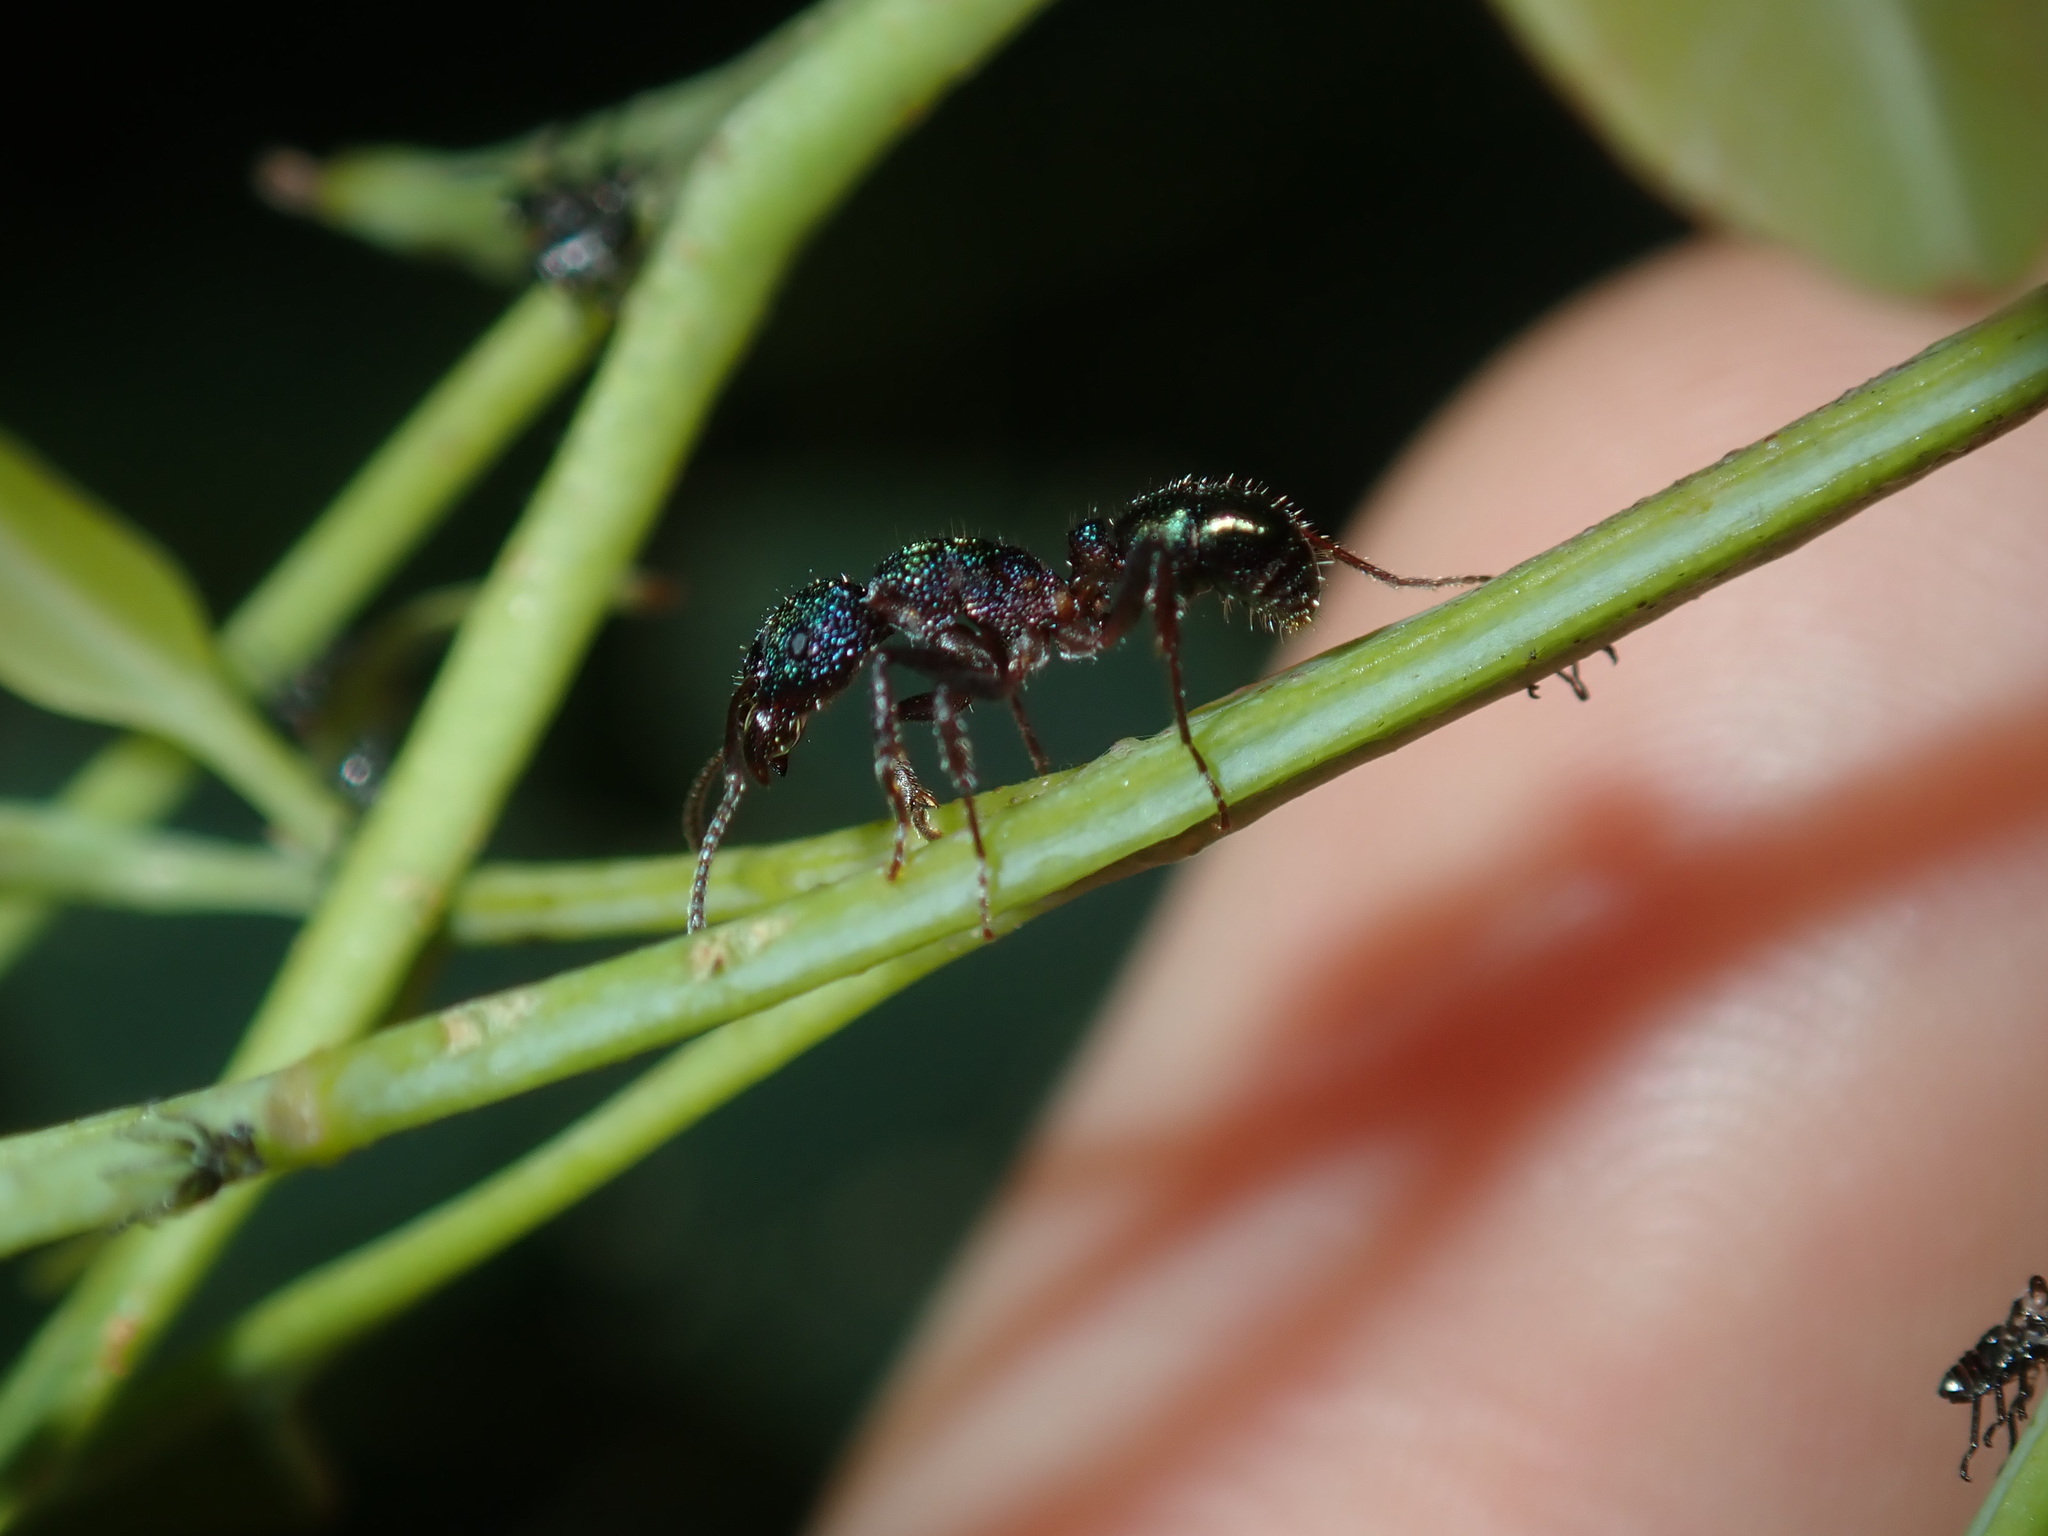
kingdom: Animalia
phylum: Arthropoda
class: Insecta
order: Hymenoptera
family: Formicidae
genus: Rhytidoponera
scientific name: Rhytidoponera metallica
